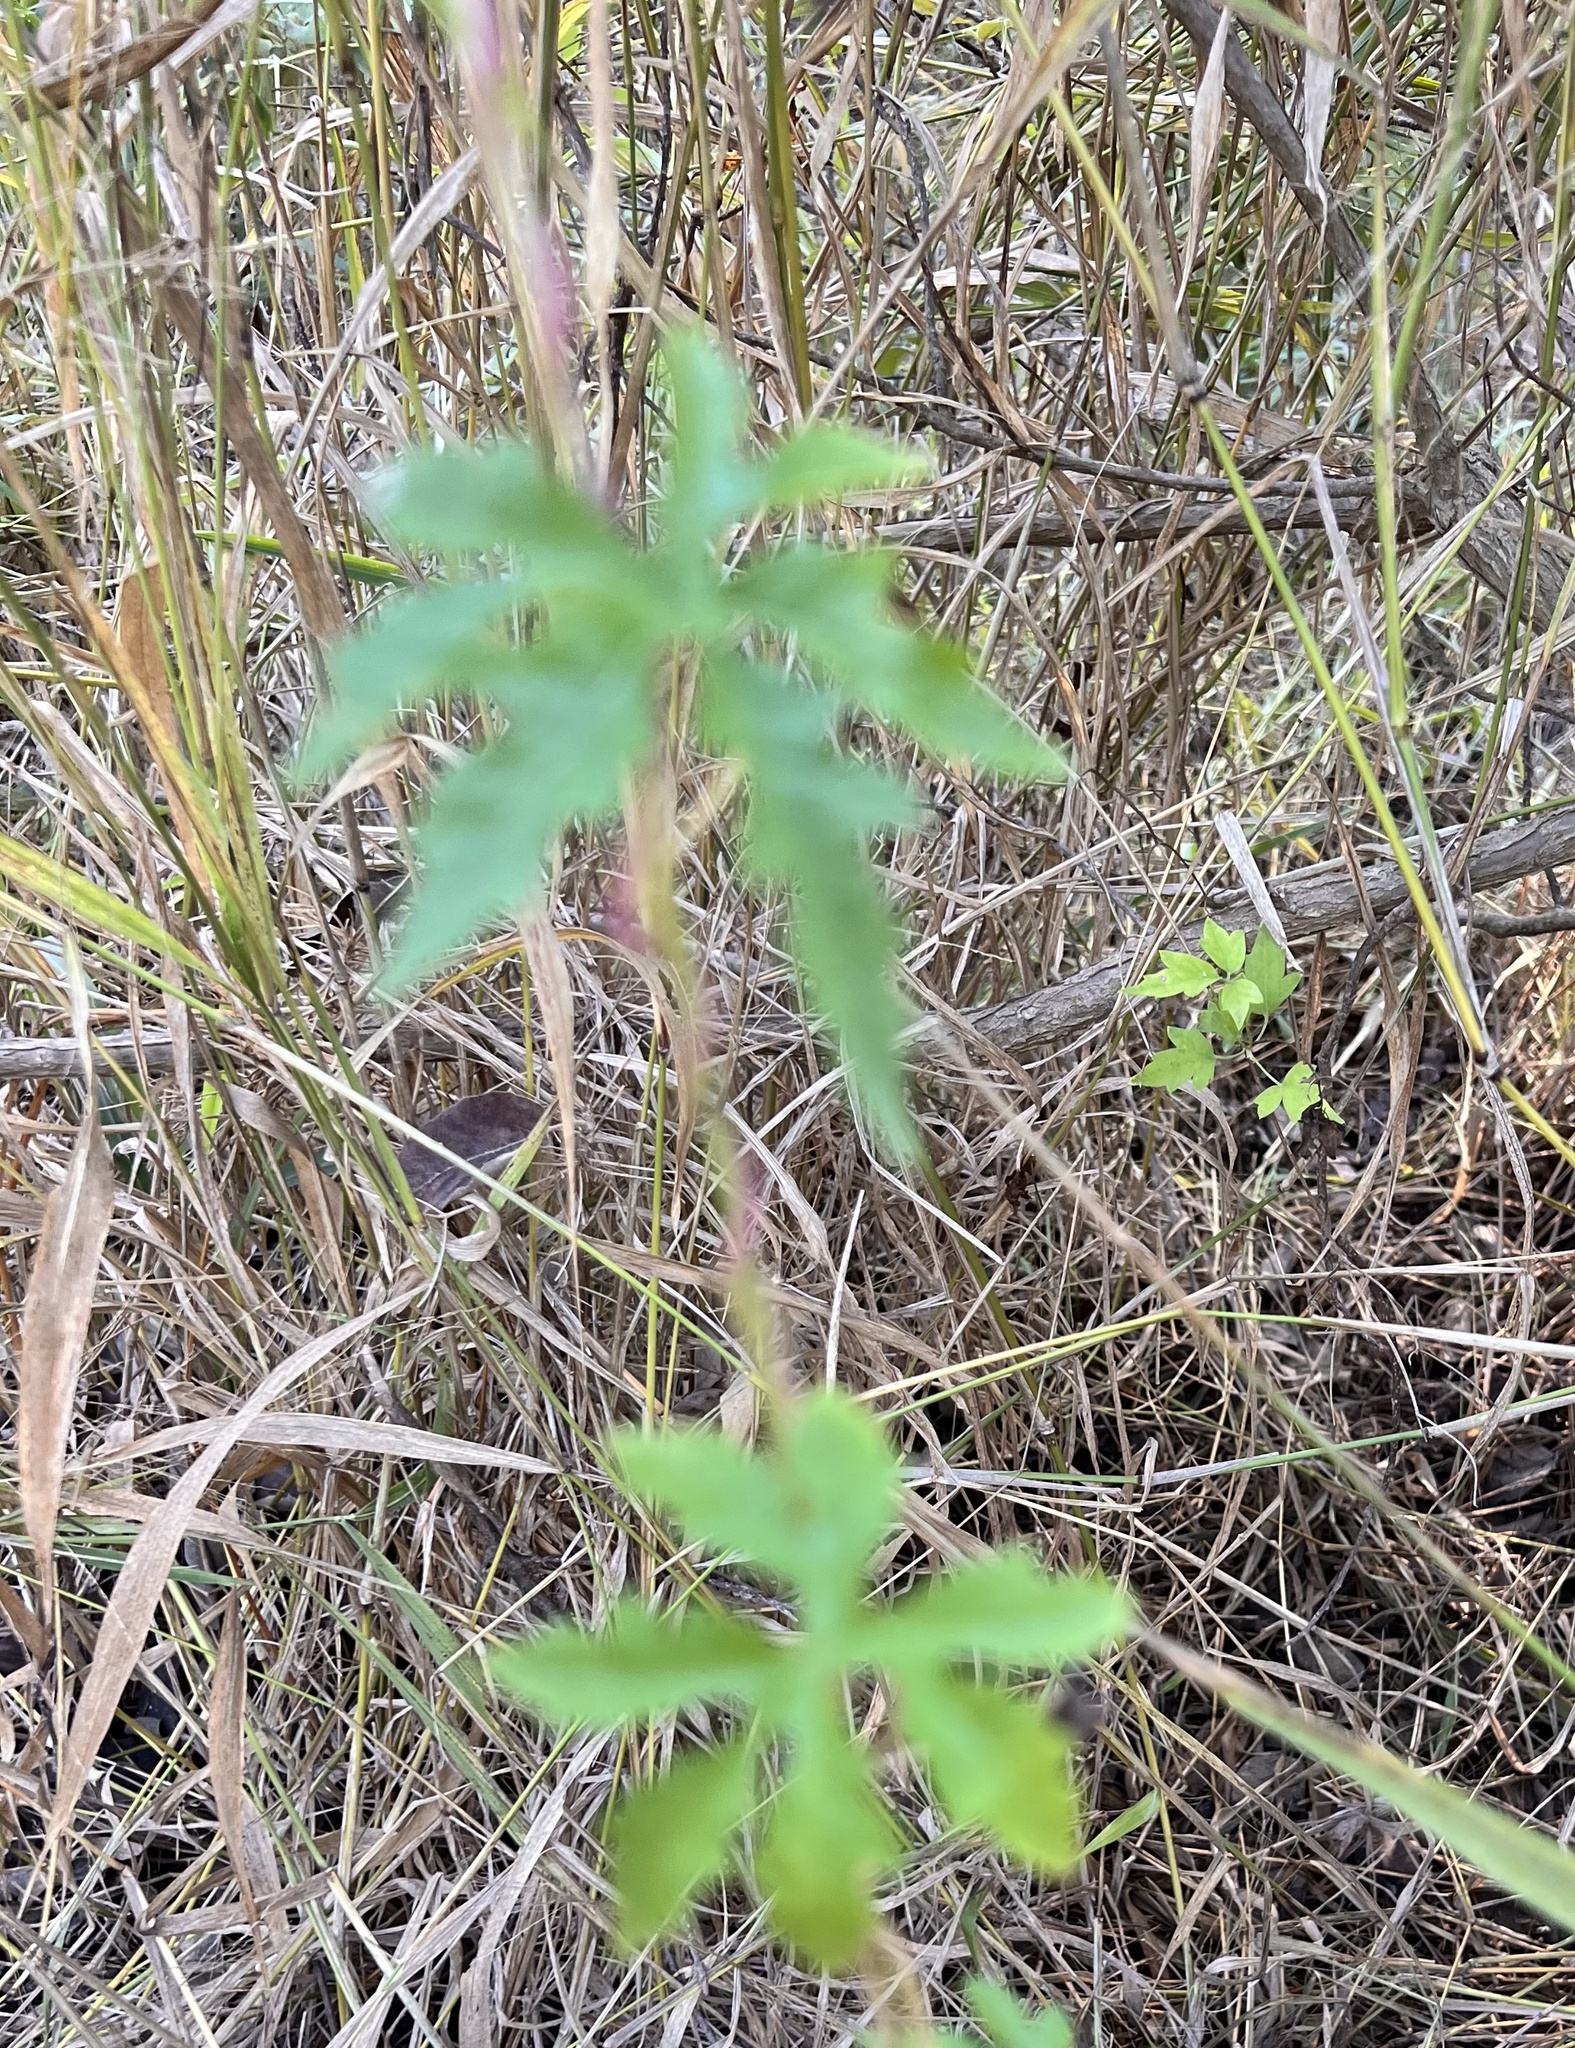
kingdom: Plantae
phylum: Tracheophyta
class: Magnoliopsida
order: Solanales
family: Convolvulaceae
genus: Distimake
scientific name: Distimake dissectus
